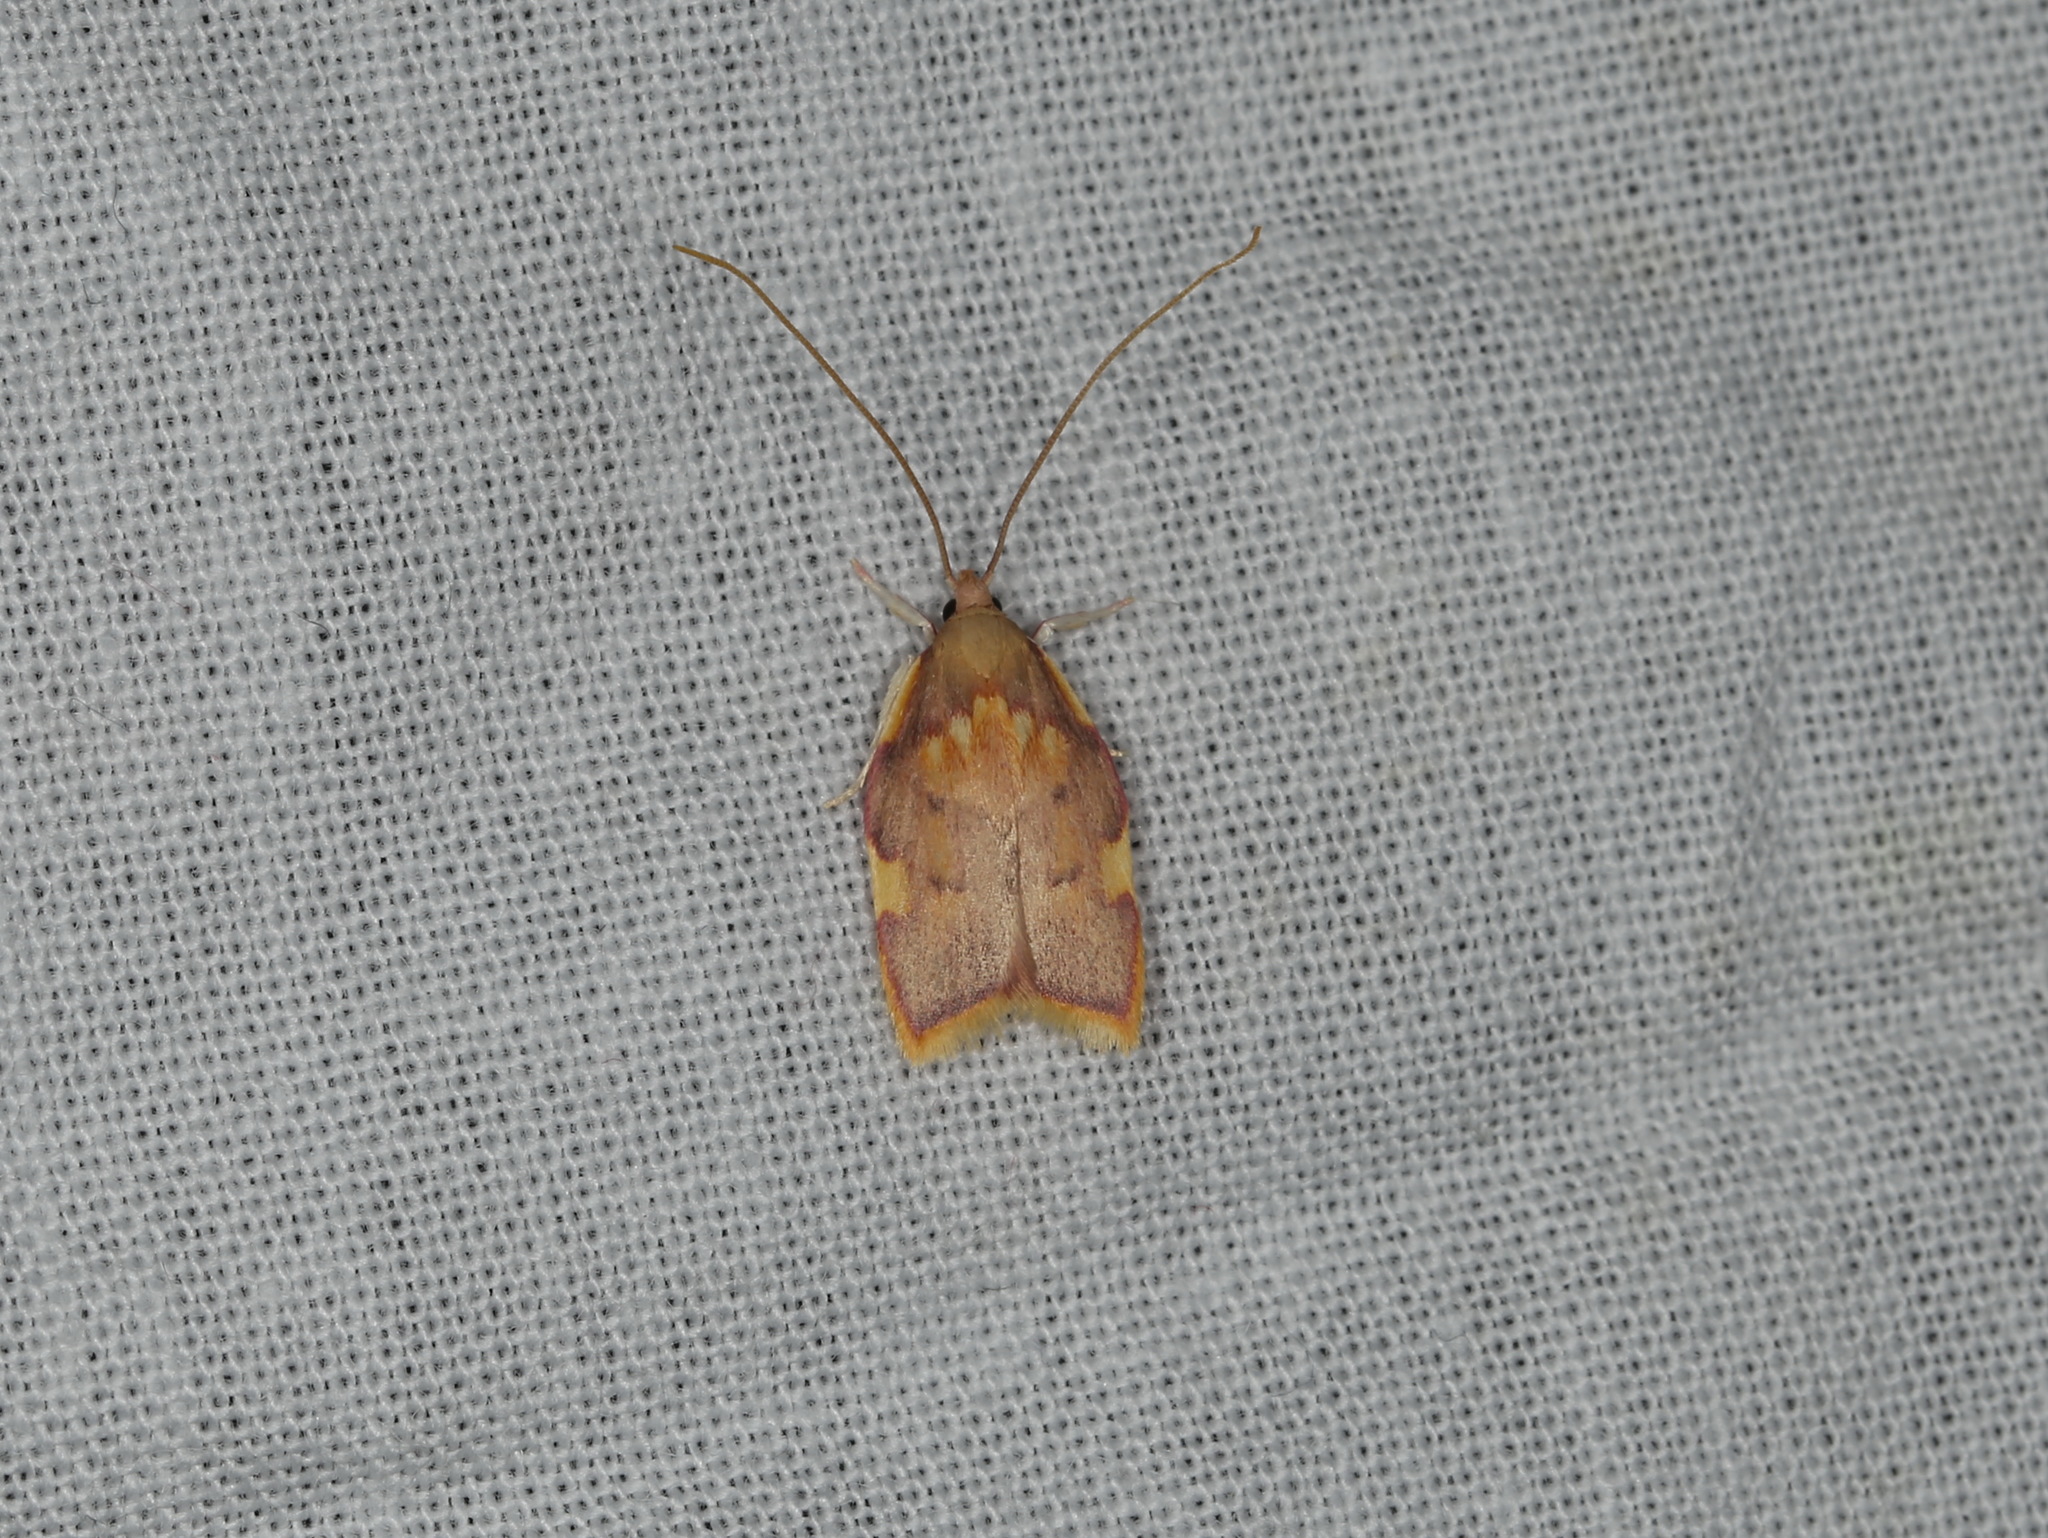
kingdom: Animalia
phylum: Arthropoda
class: Insecta
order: Lepidoptera
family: Peleopodidae
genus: Carcina
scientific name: Carcina quercana
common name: Moth
